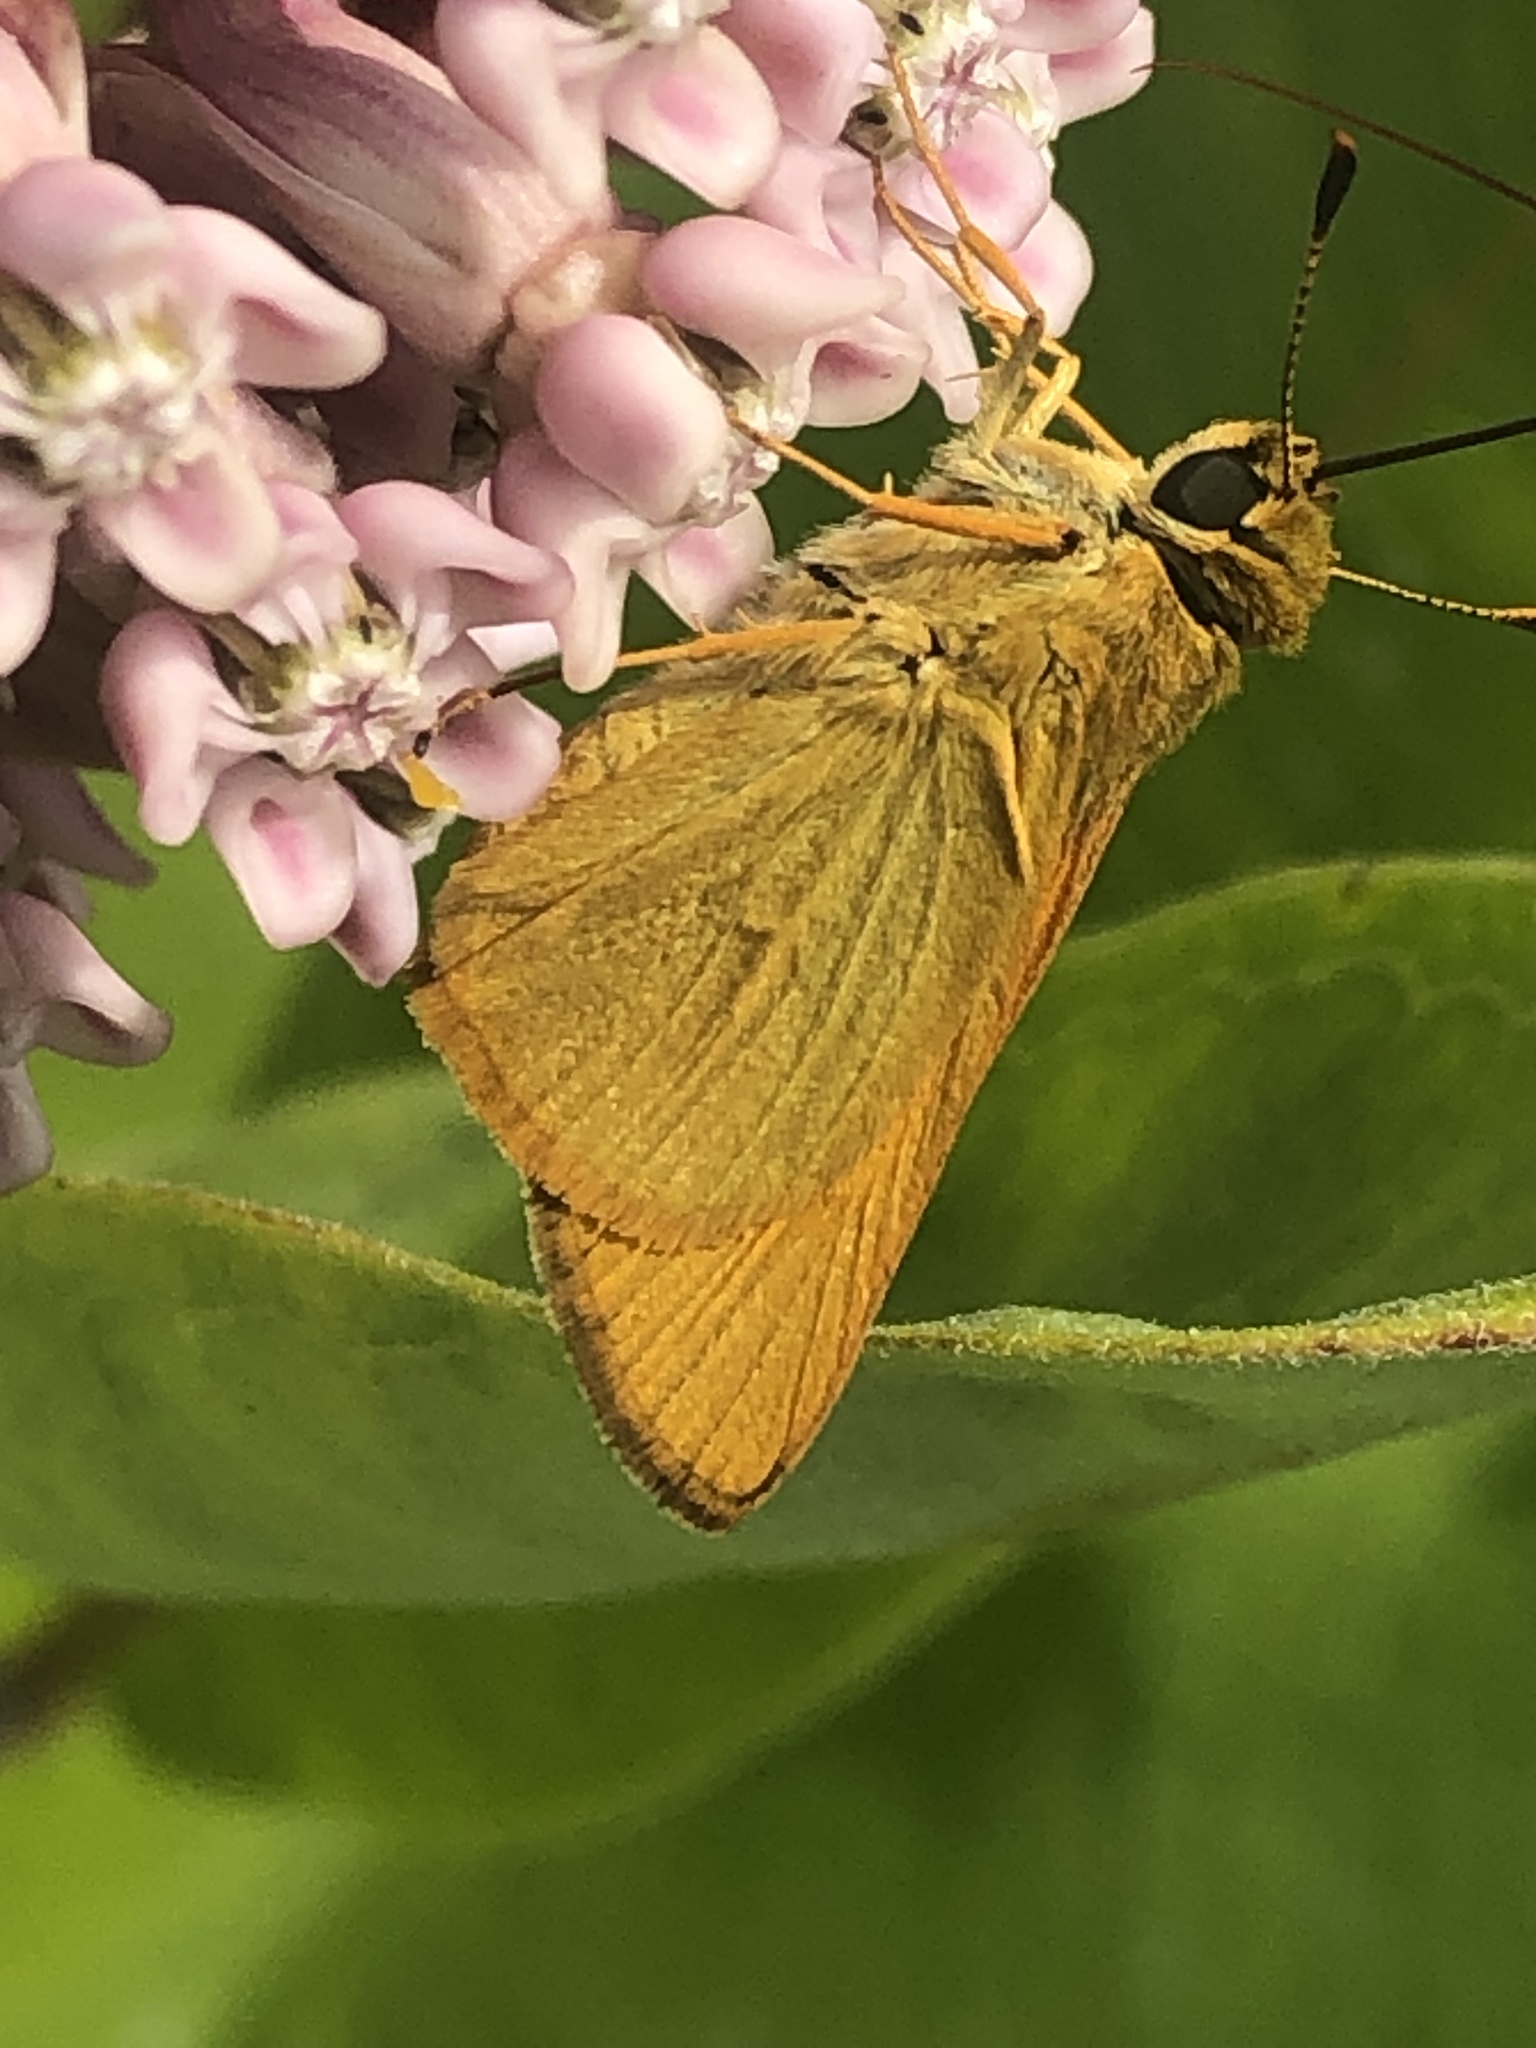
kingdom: Animalia
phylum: Arthropoda
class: Insecta
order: Lepidoptera
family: Hesperiidae
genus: Atrytone
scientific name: Atrytone delaware
